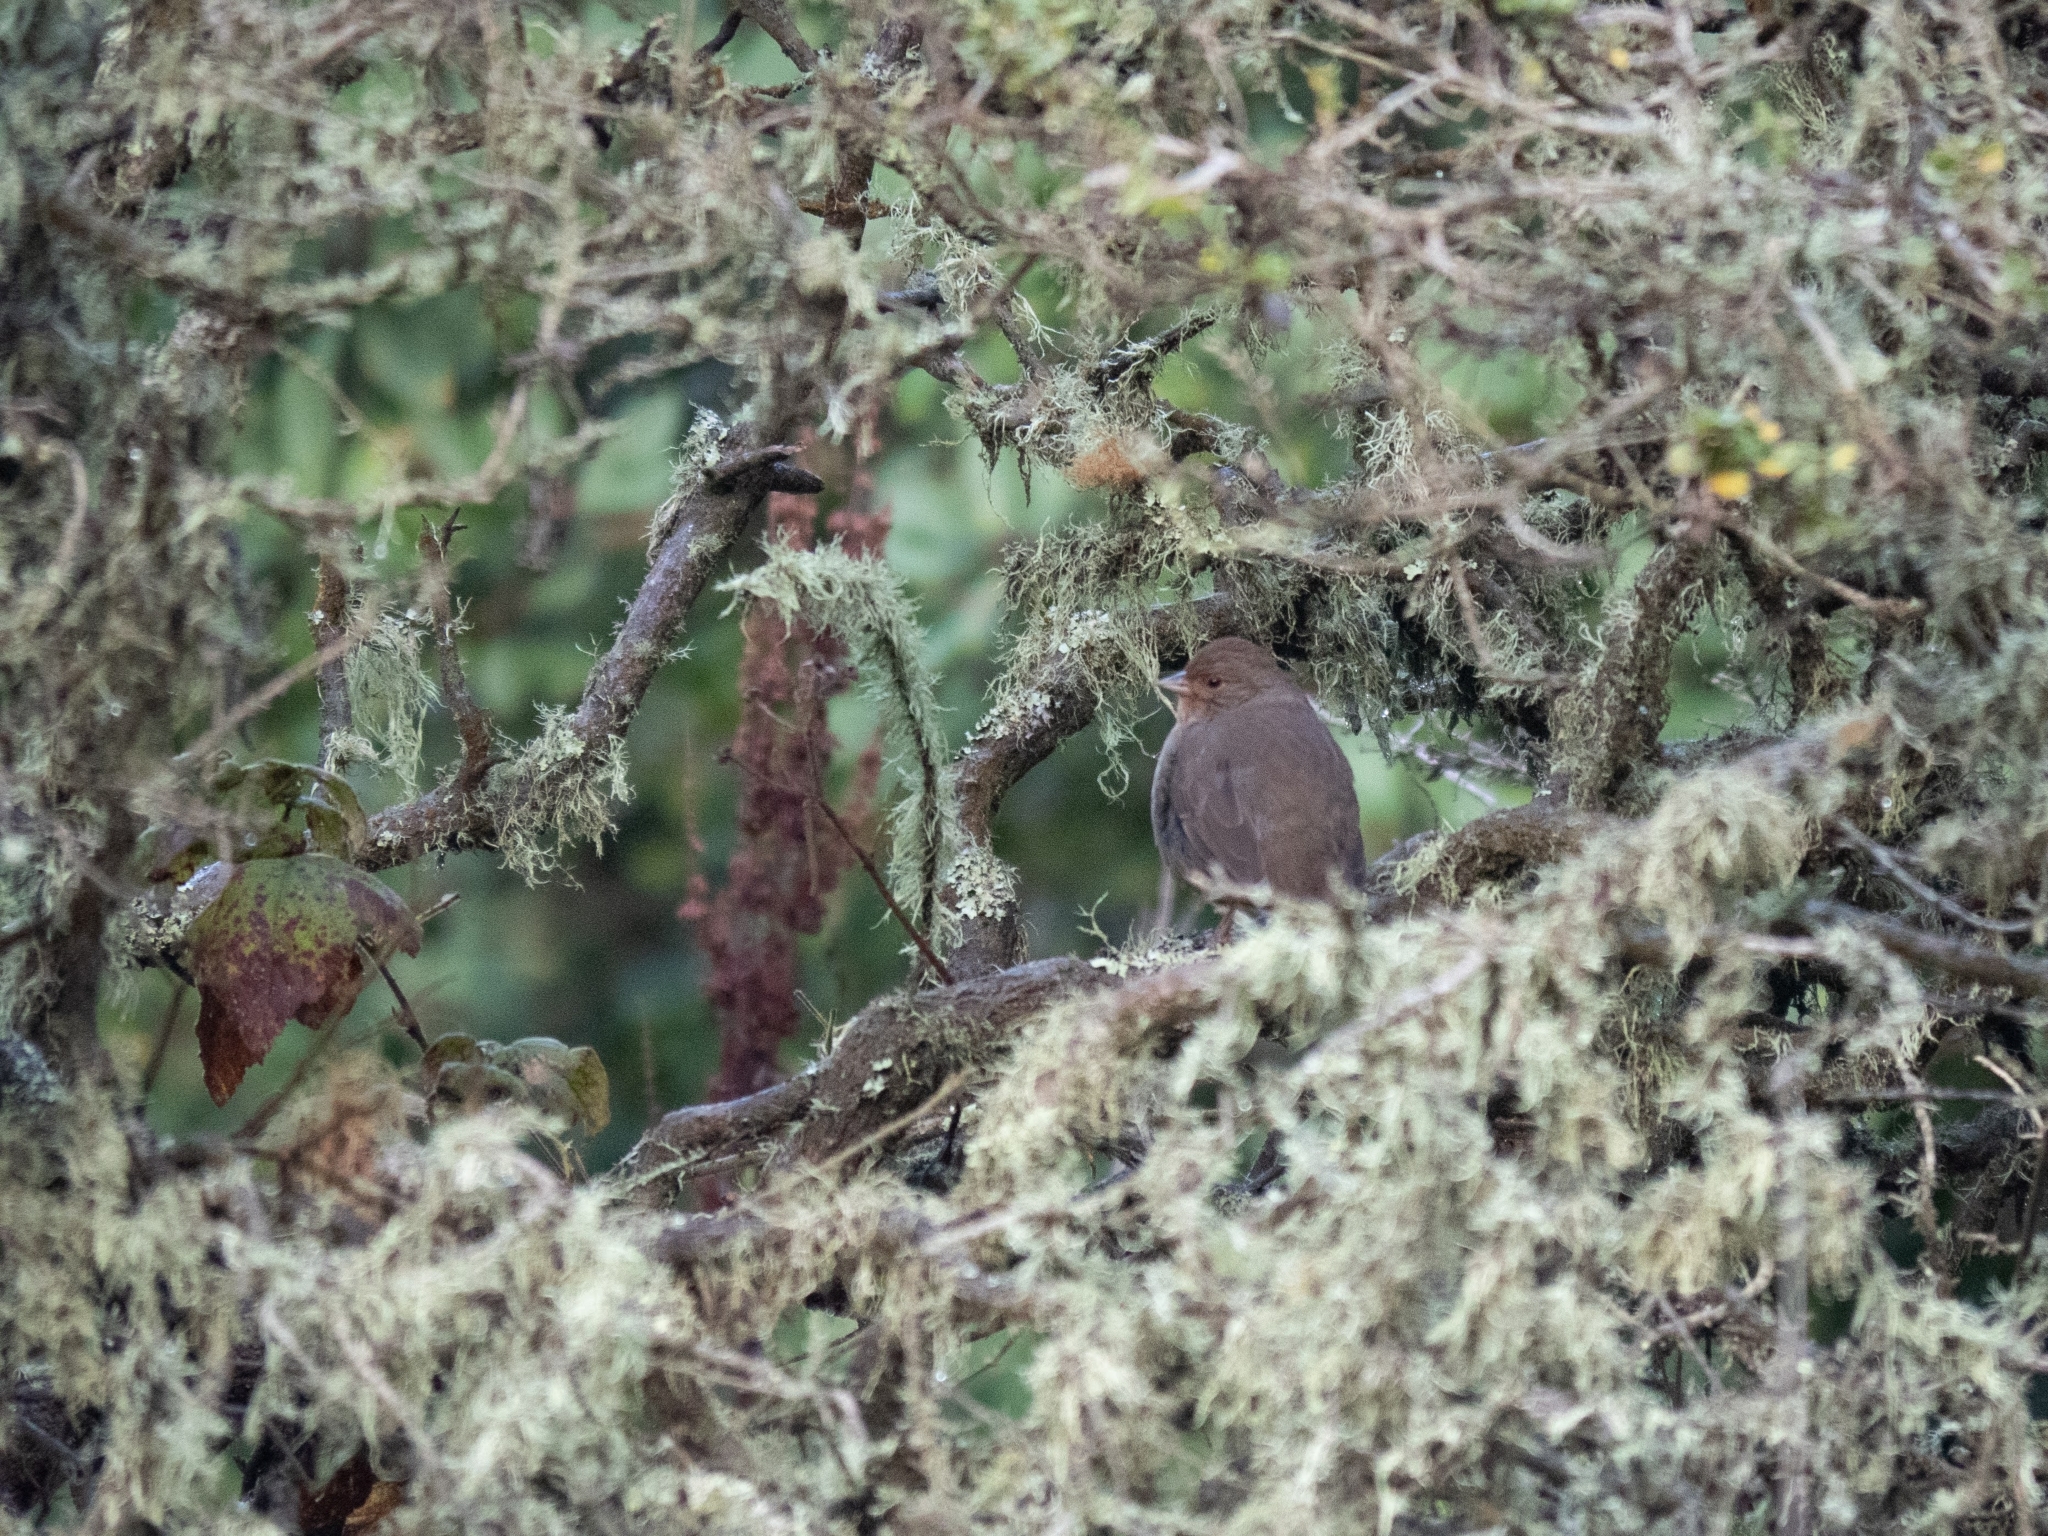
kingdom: Animalia
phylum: Chordata
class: Aves
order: Passeriformes
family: Passerellidae
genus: Melozone
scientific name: Melozone crissalis
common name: California towhee
